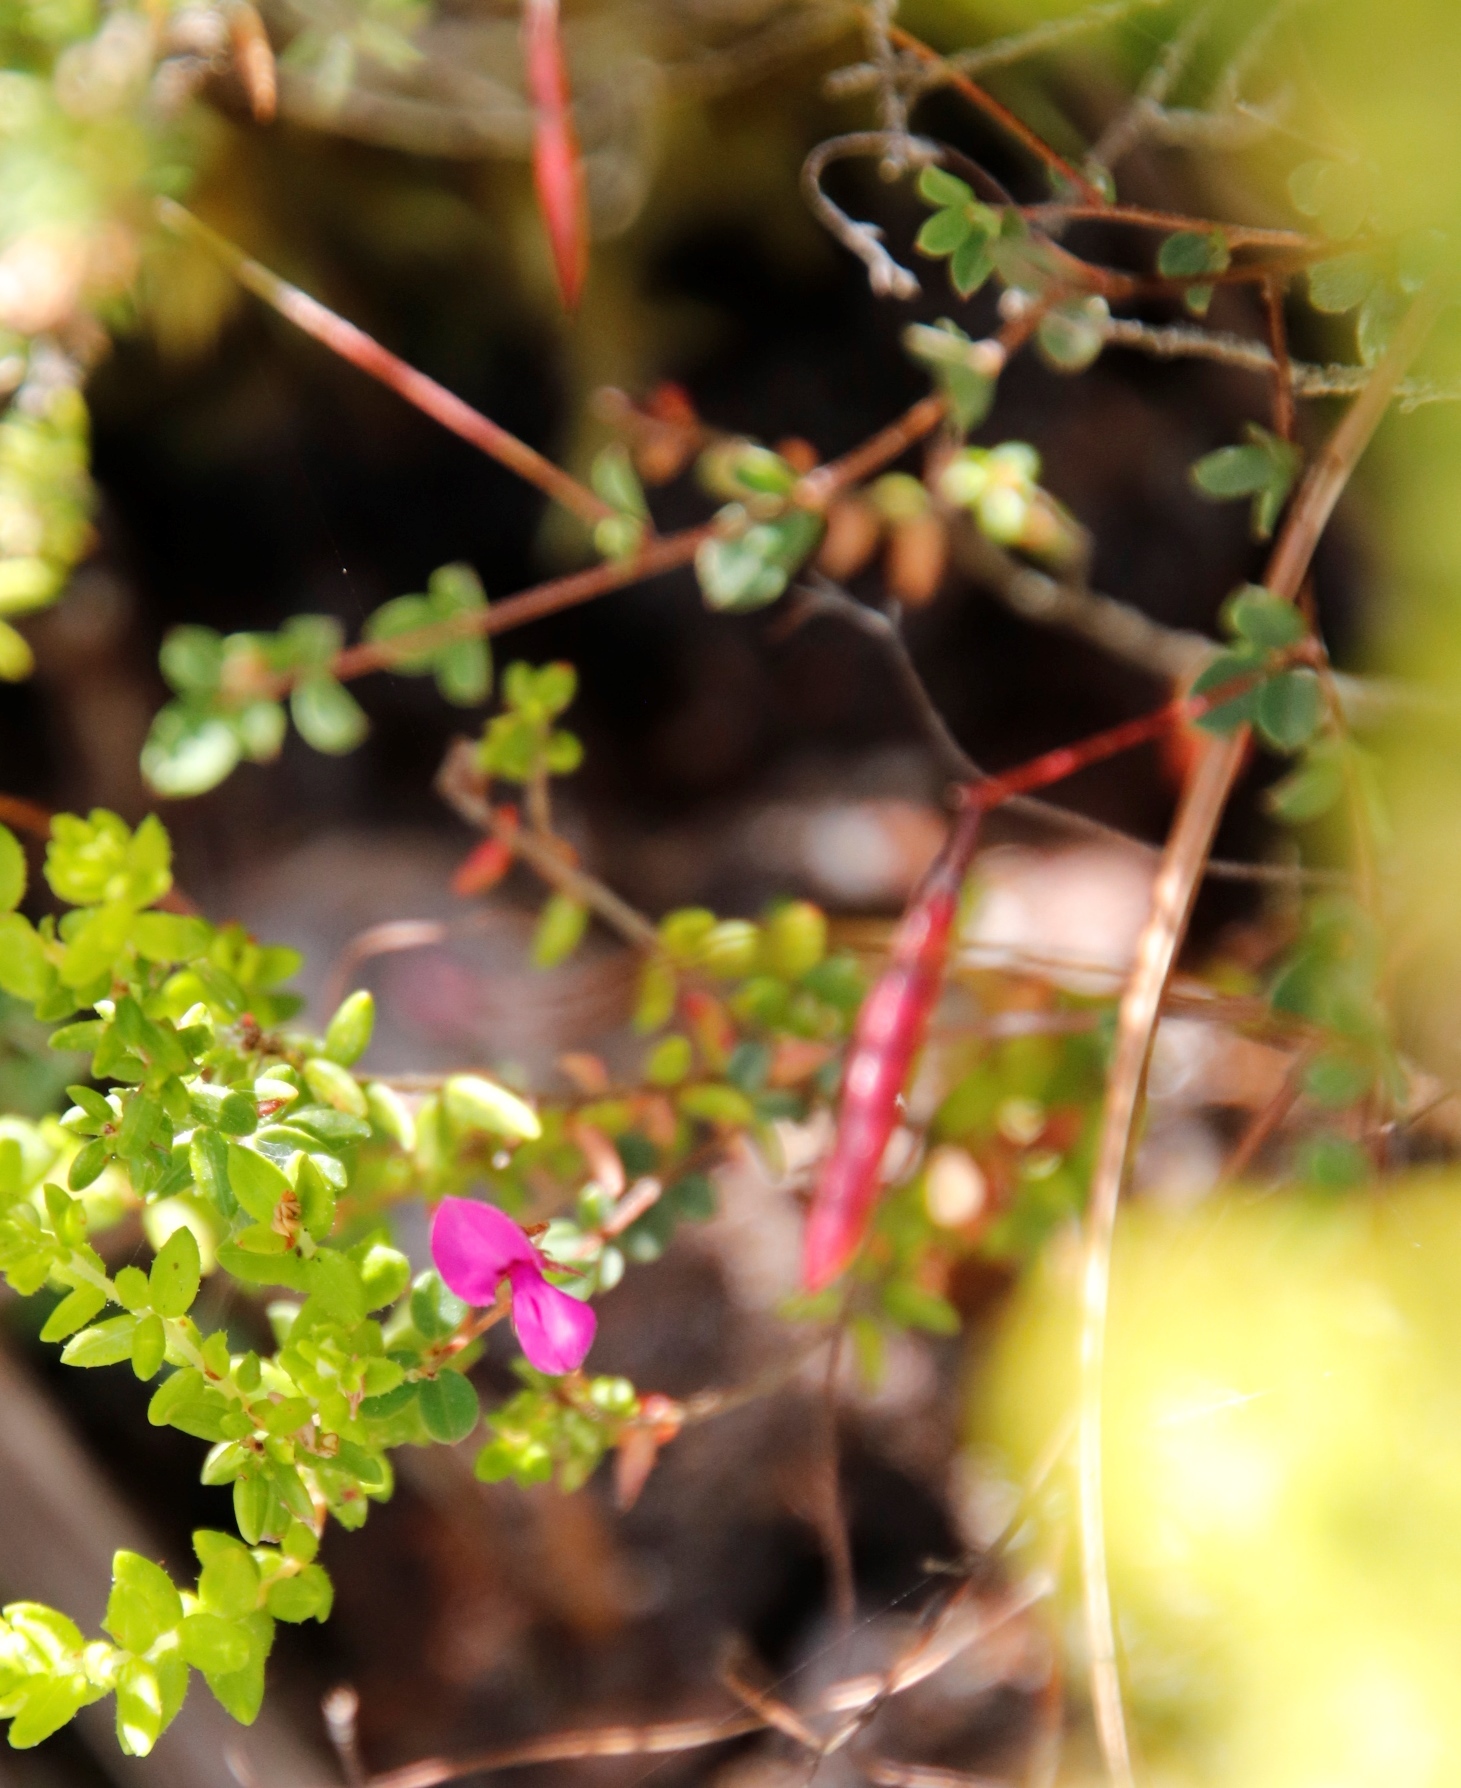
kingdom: Plantae
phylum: Tracheophyta
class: Magnoliopsida
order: Fabales
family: Fabaceae
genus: Indigofera
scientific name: Indigofera sarmentosa
